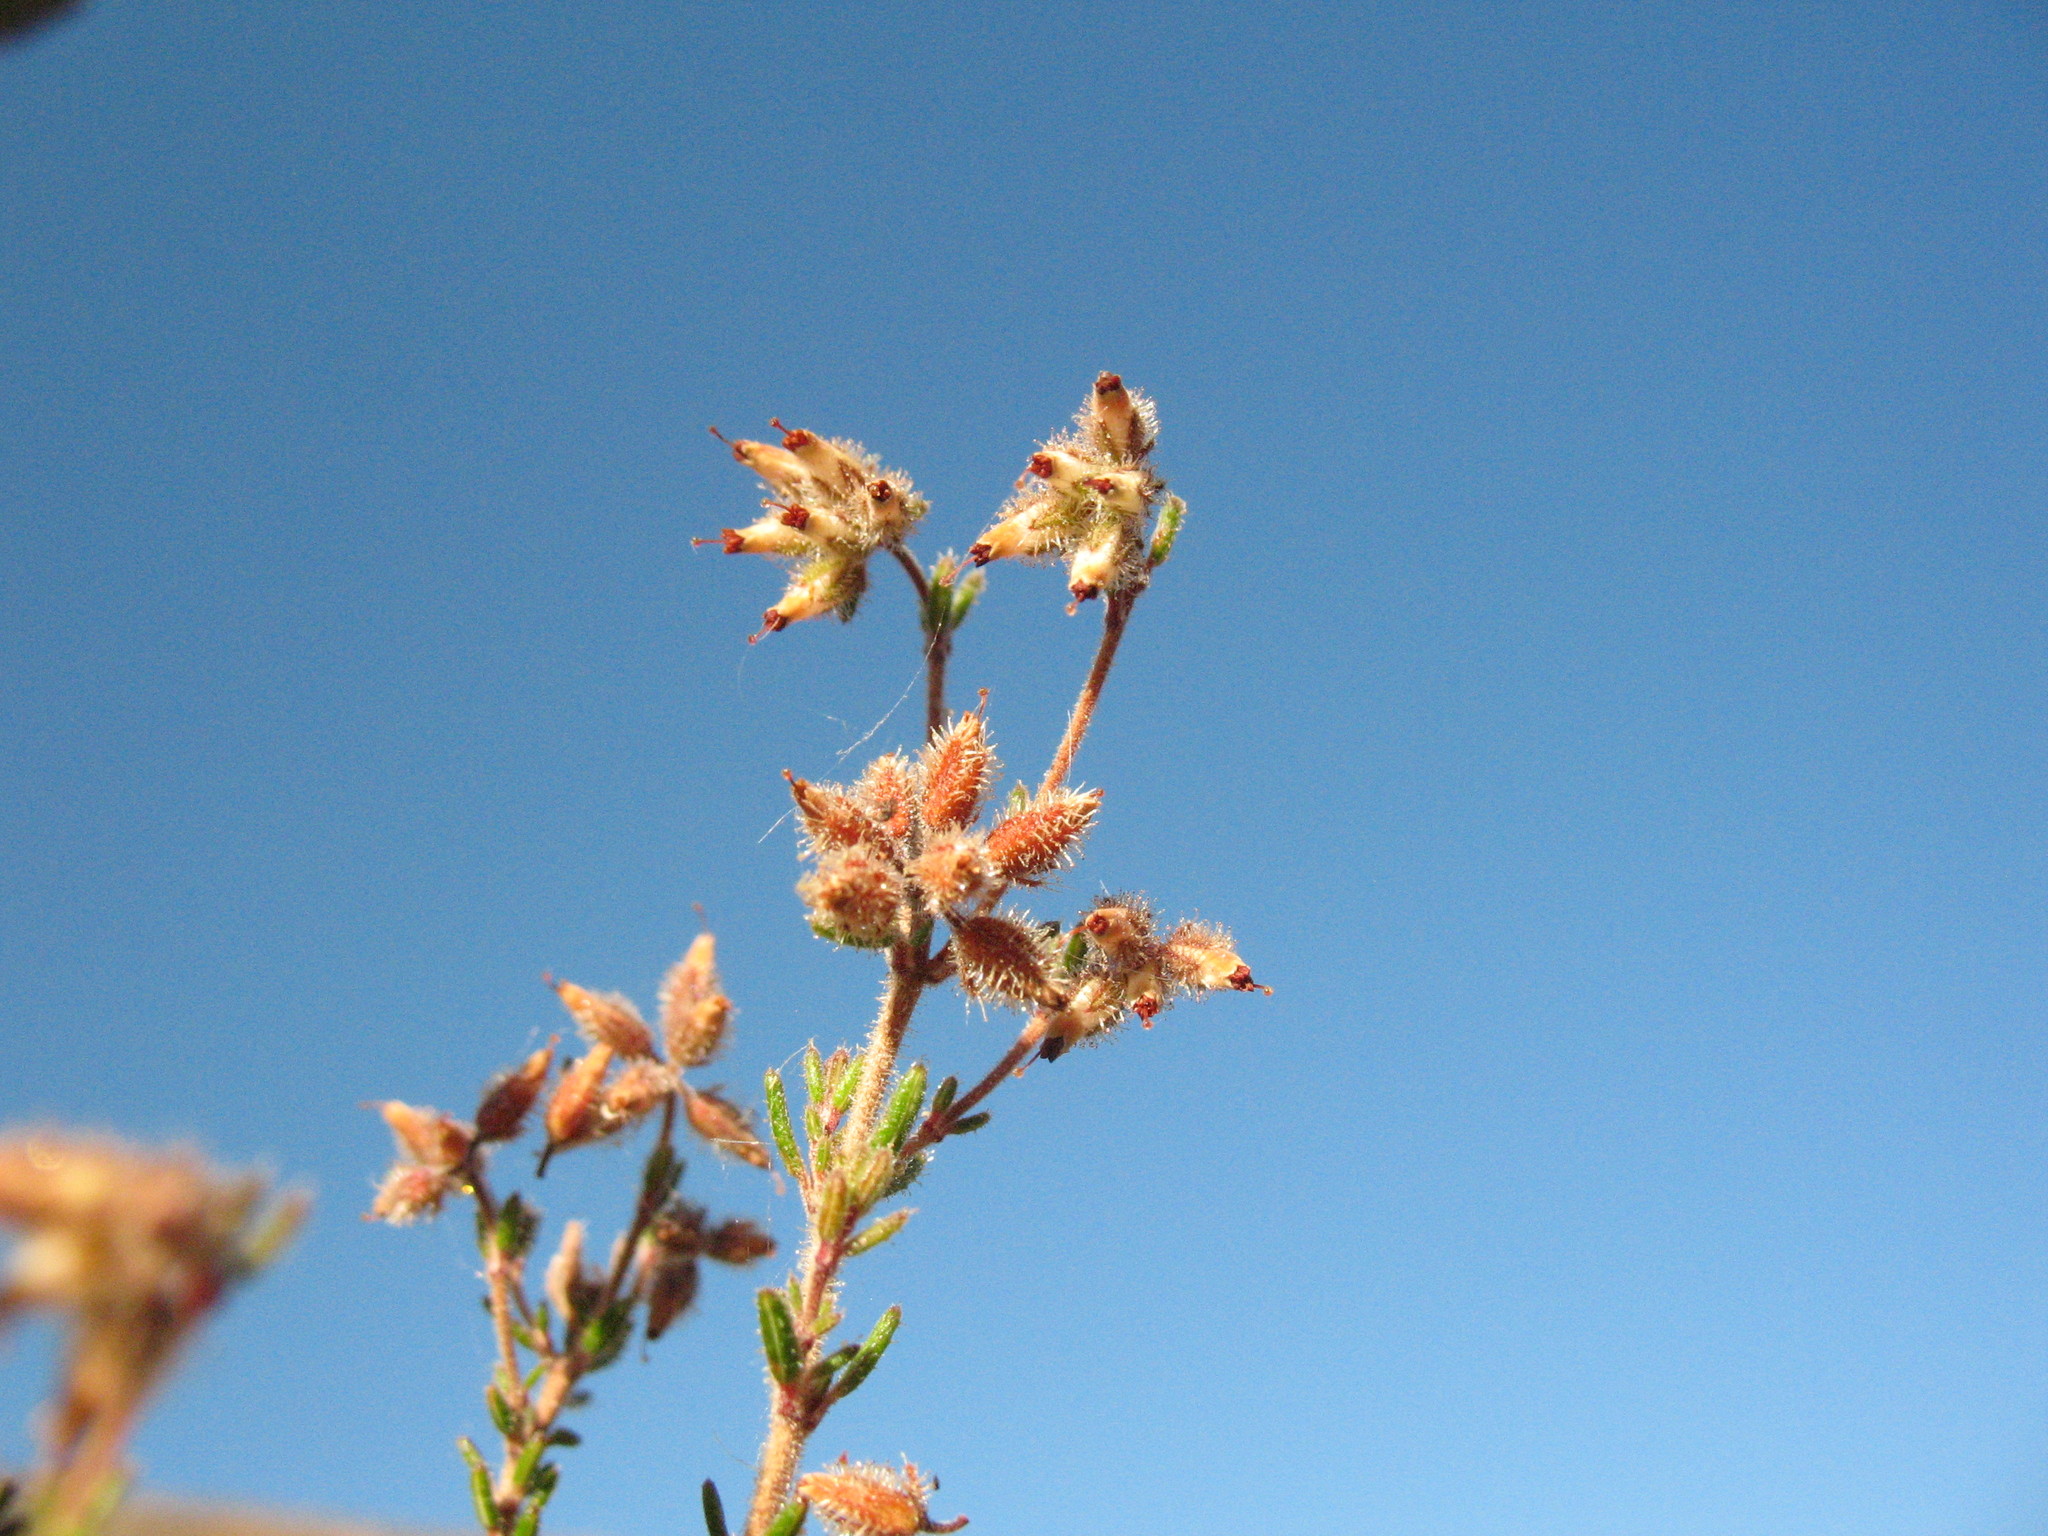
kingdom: Plantae
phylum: Tracheophyta
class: Magnoliopsida
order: Ericales
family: Ericaceae
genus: Erica
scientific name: Erica arachnocalyx
